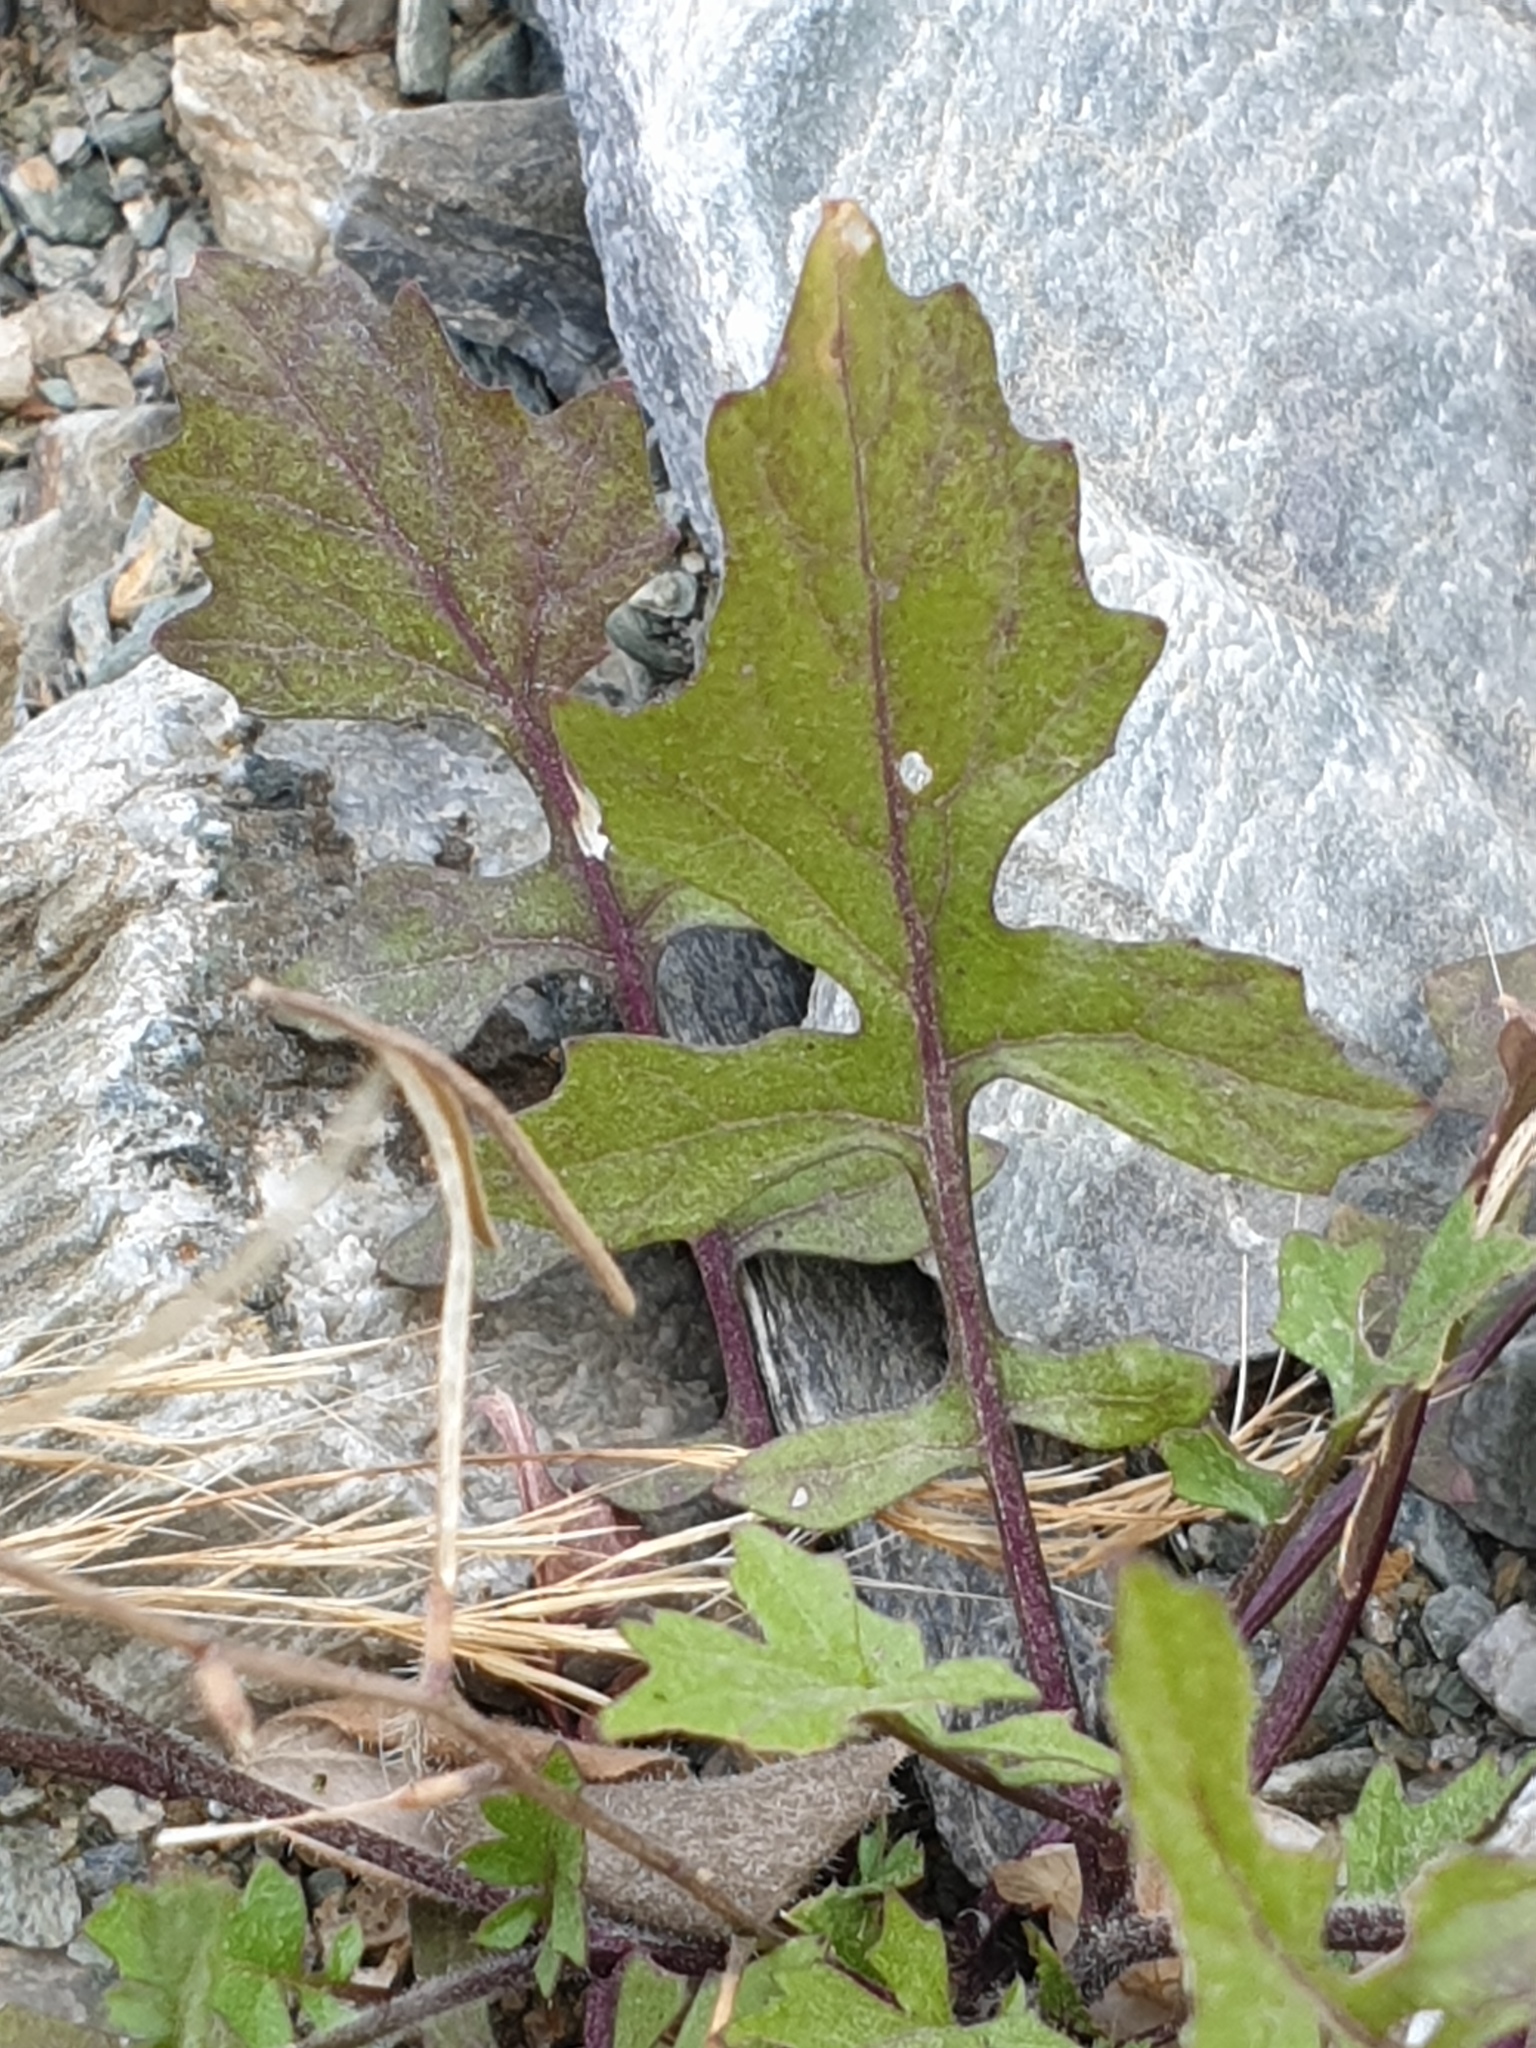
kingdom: Plantae
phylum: Tracheophyta
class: Magnoliopsida
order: Brassicales
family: Brassicaceae
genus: Sisymbrium
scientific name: Sisymbrium erysimoides
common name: French rocket
